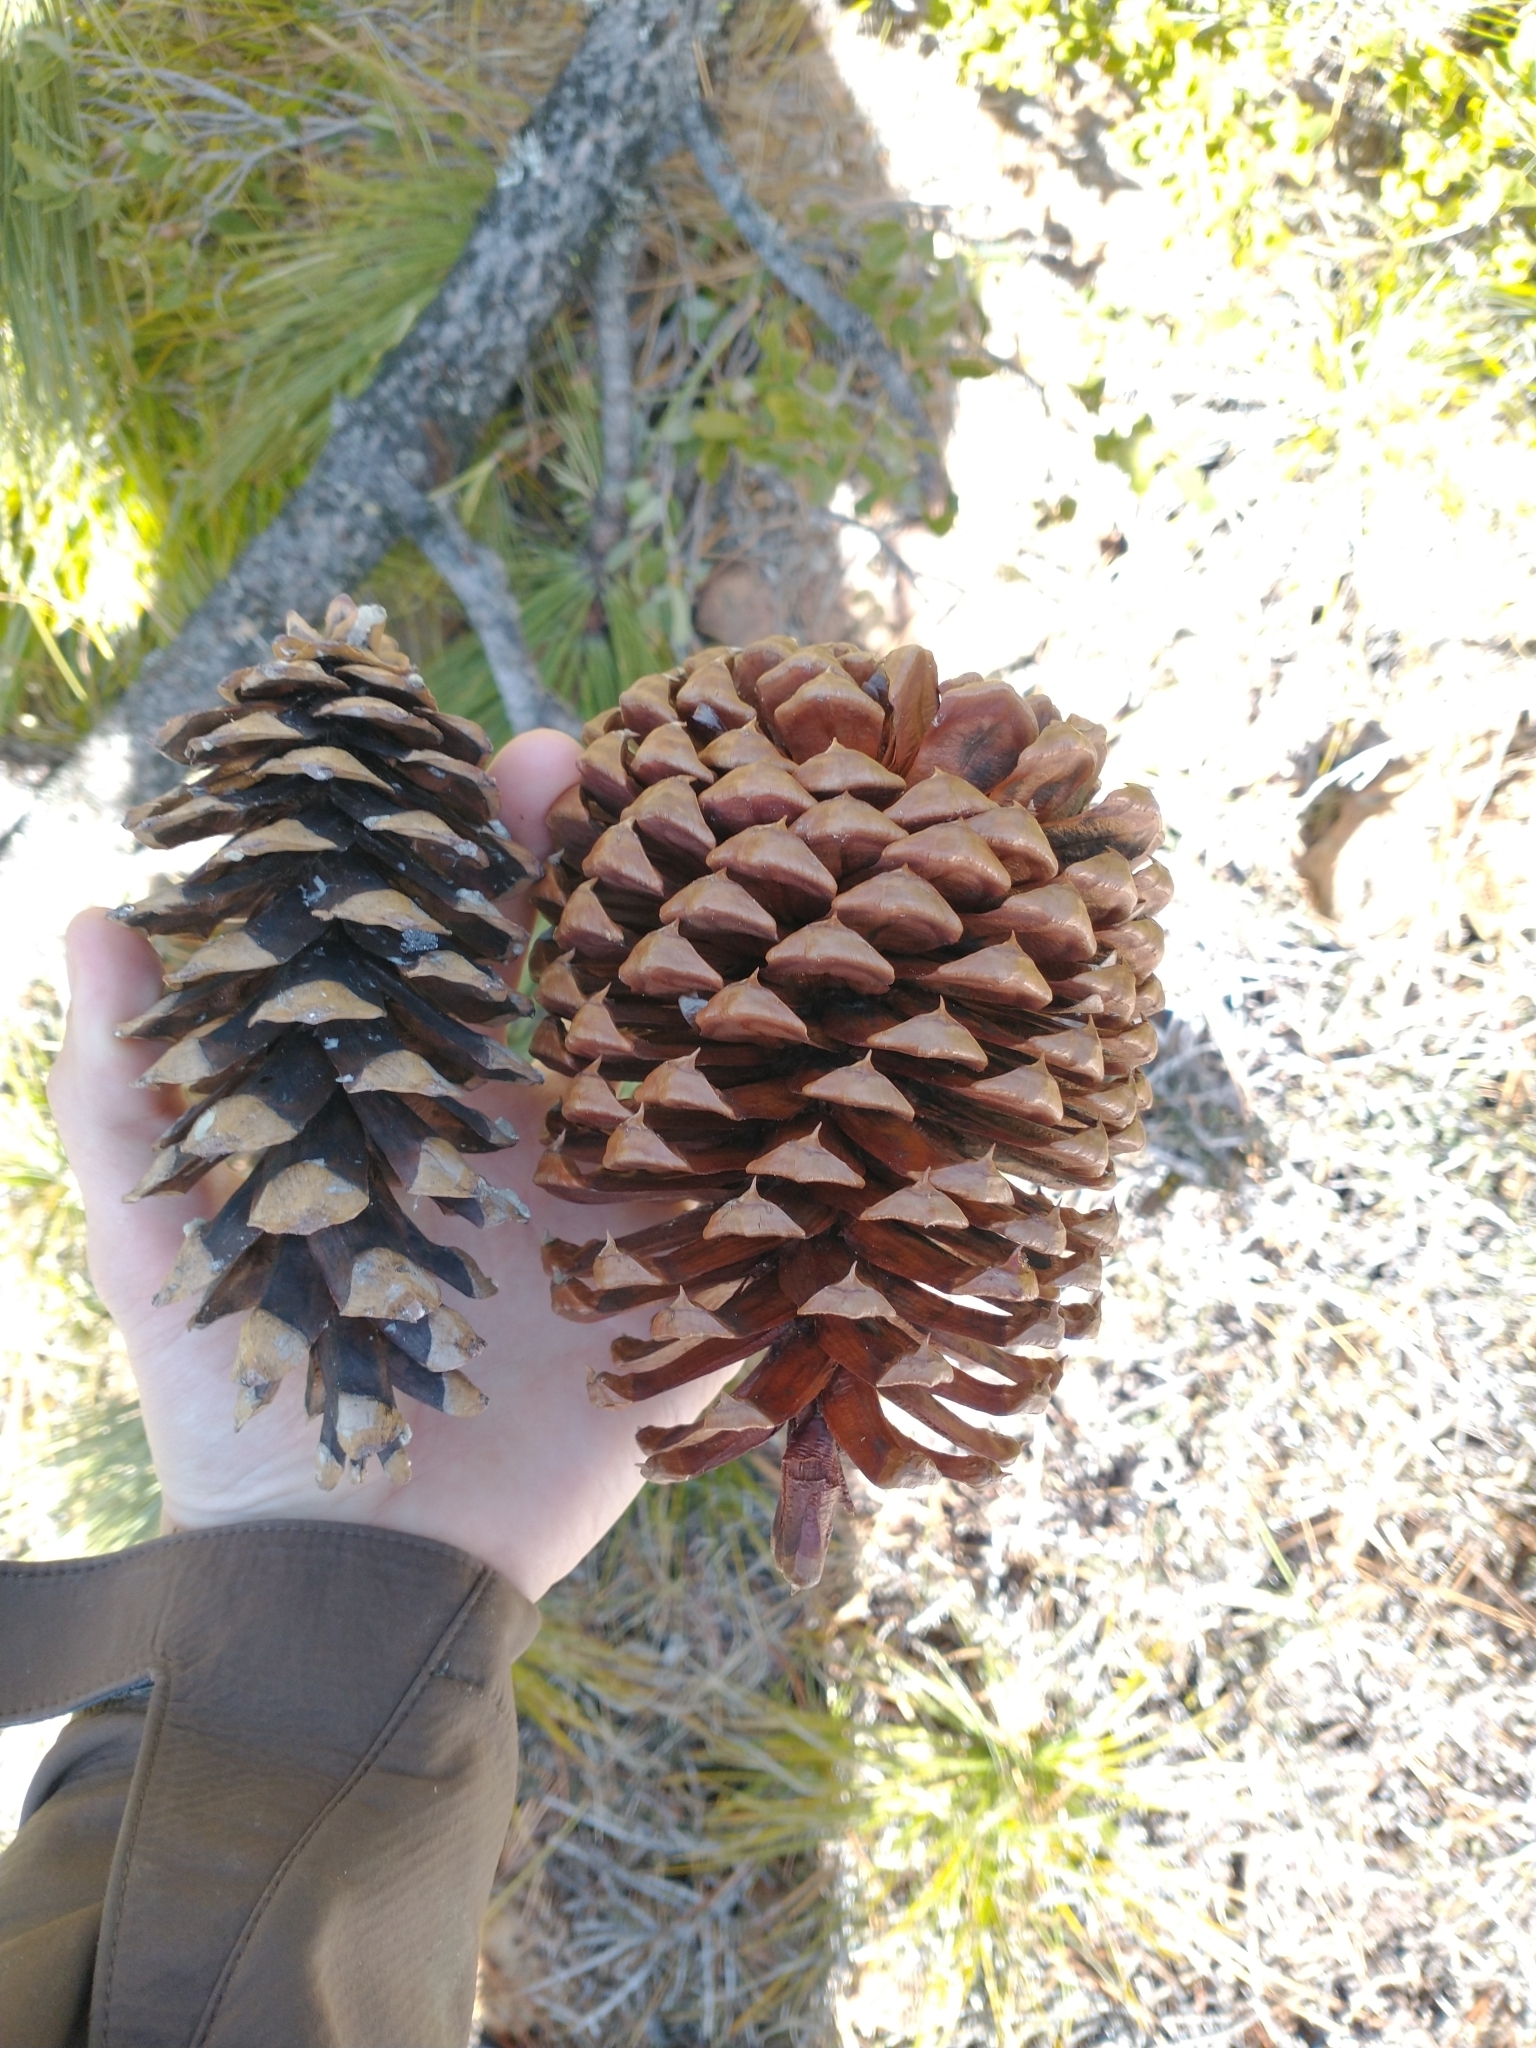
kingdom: Plantae
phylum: Tracheophyta
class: Pinopsida
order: Pinales
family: Pinaceae
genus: Pinus
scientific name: Pinus monticola
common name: Western white pine
